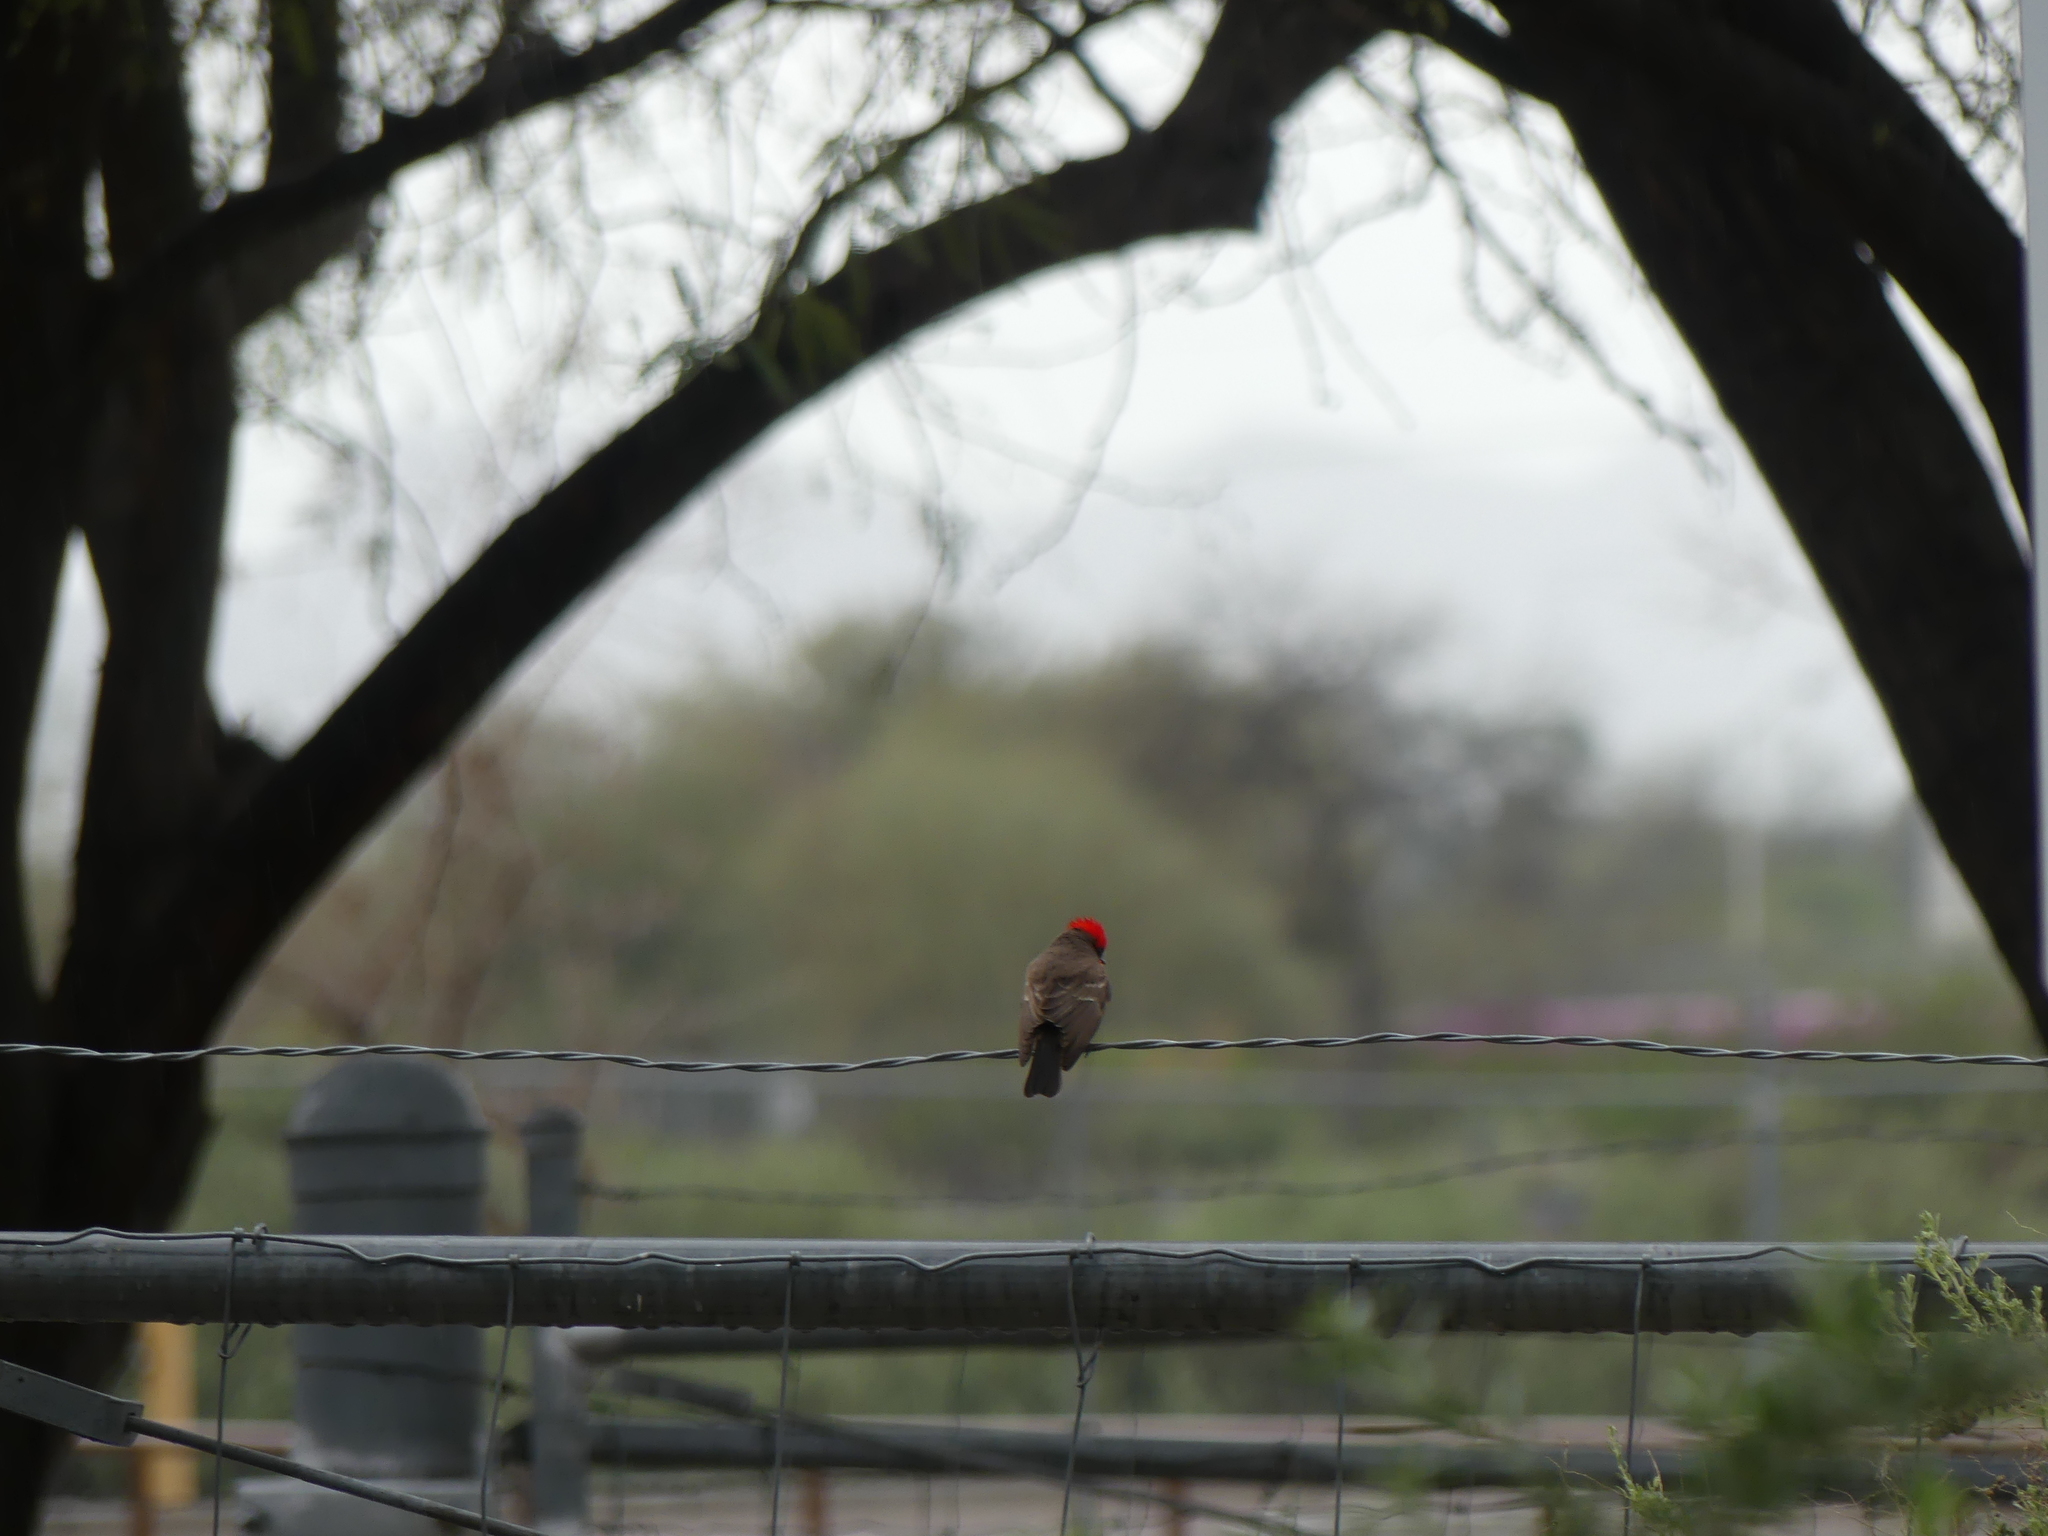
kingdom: Animalia
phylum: Chordata
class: Aves
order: Passeriformes
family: Tyrannidae
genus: Pyrocephalus
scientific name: Pyrocephalus rubinus
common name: Vermilion flycatcher
